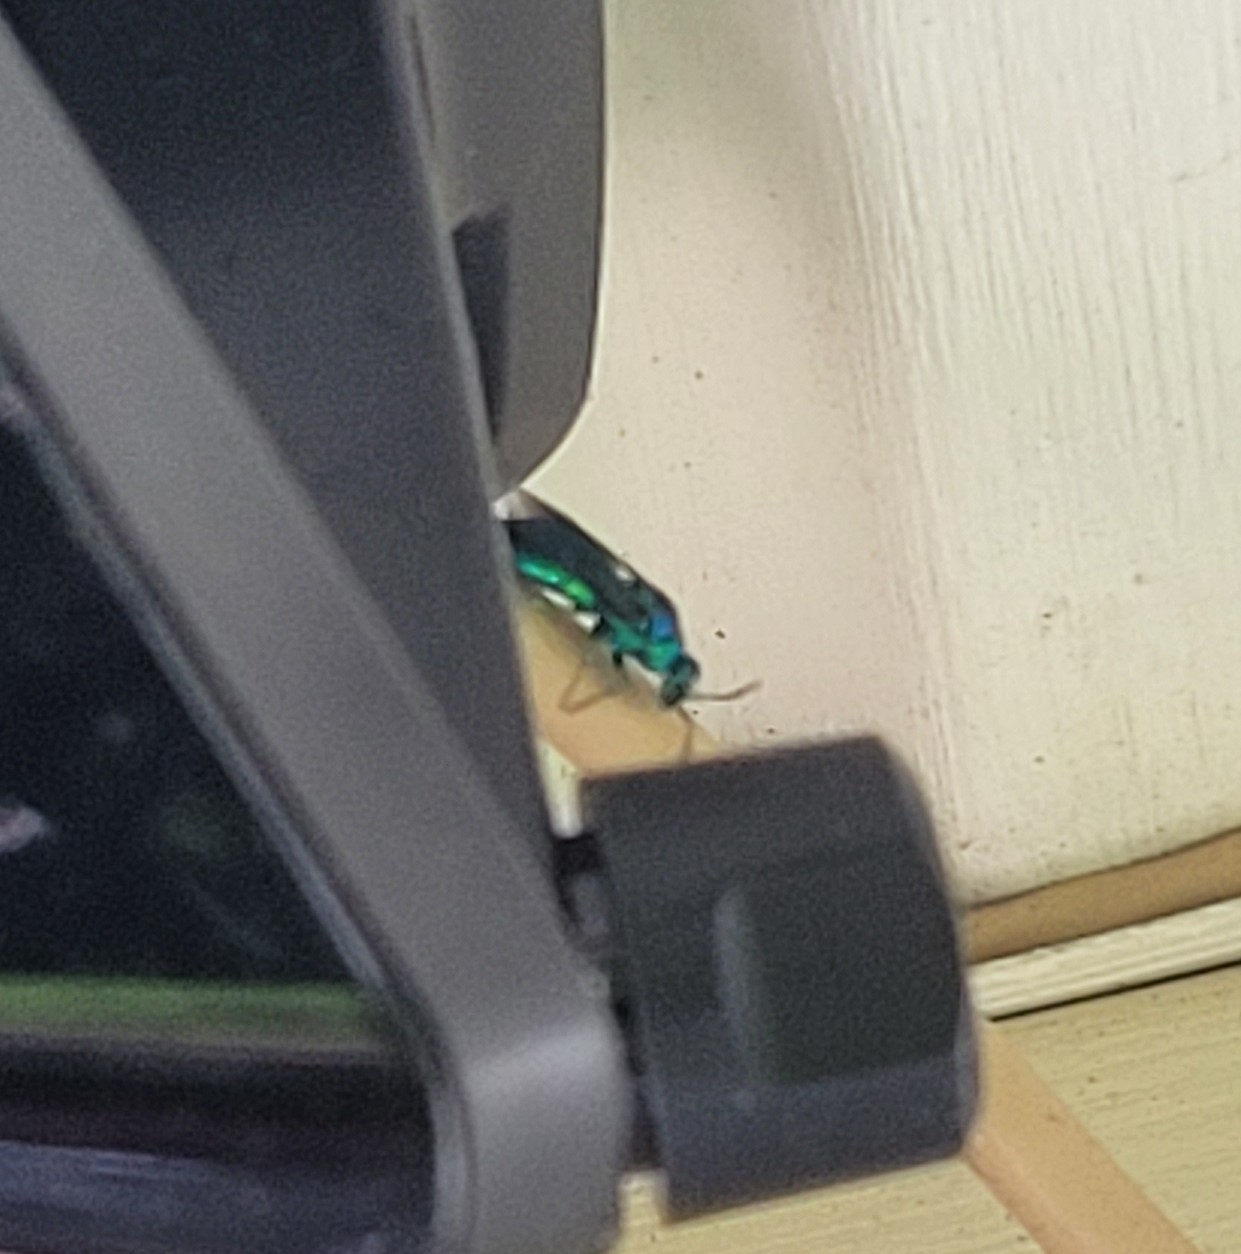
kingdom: Animalia
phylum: Arthropoda
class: Insecta
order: Hymenoptera
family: Chrysididae
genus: Chrysis
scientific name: Chrysis angolensis
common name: Cuckoo wasp
